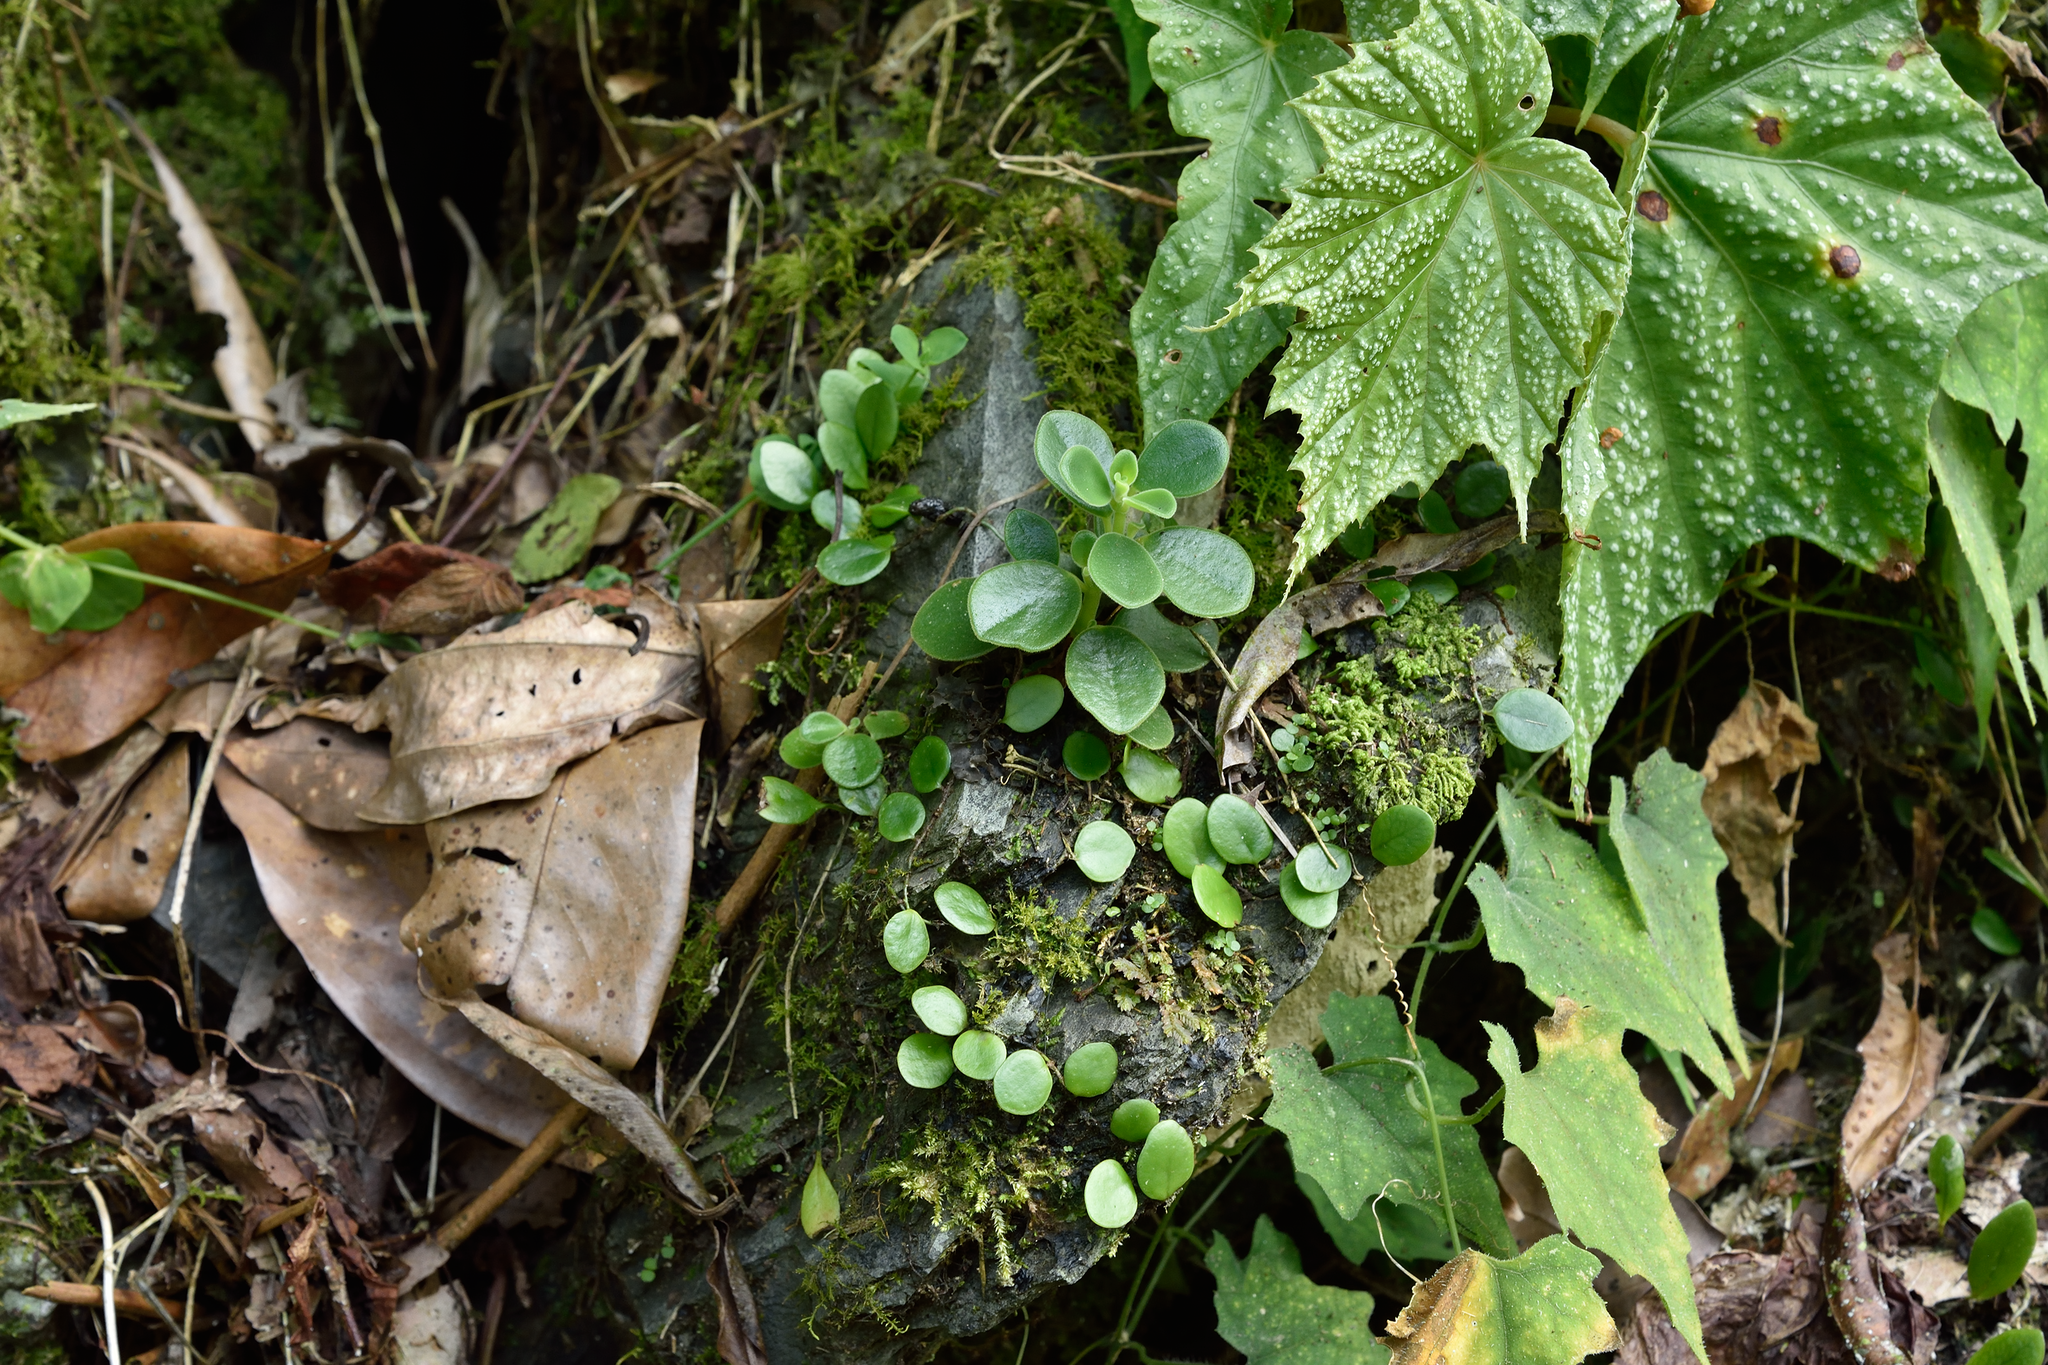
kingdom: Plantae
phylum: Tracheophyta
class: Magnoliopsida
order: Piperales
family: Piperaceae
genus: Peperomia
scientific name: Peperomia japonica
